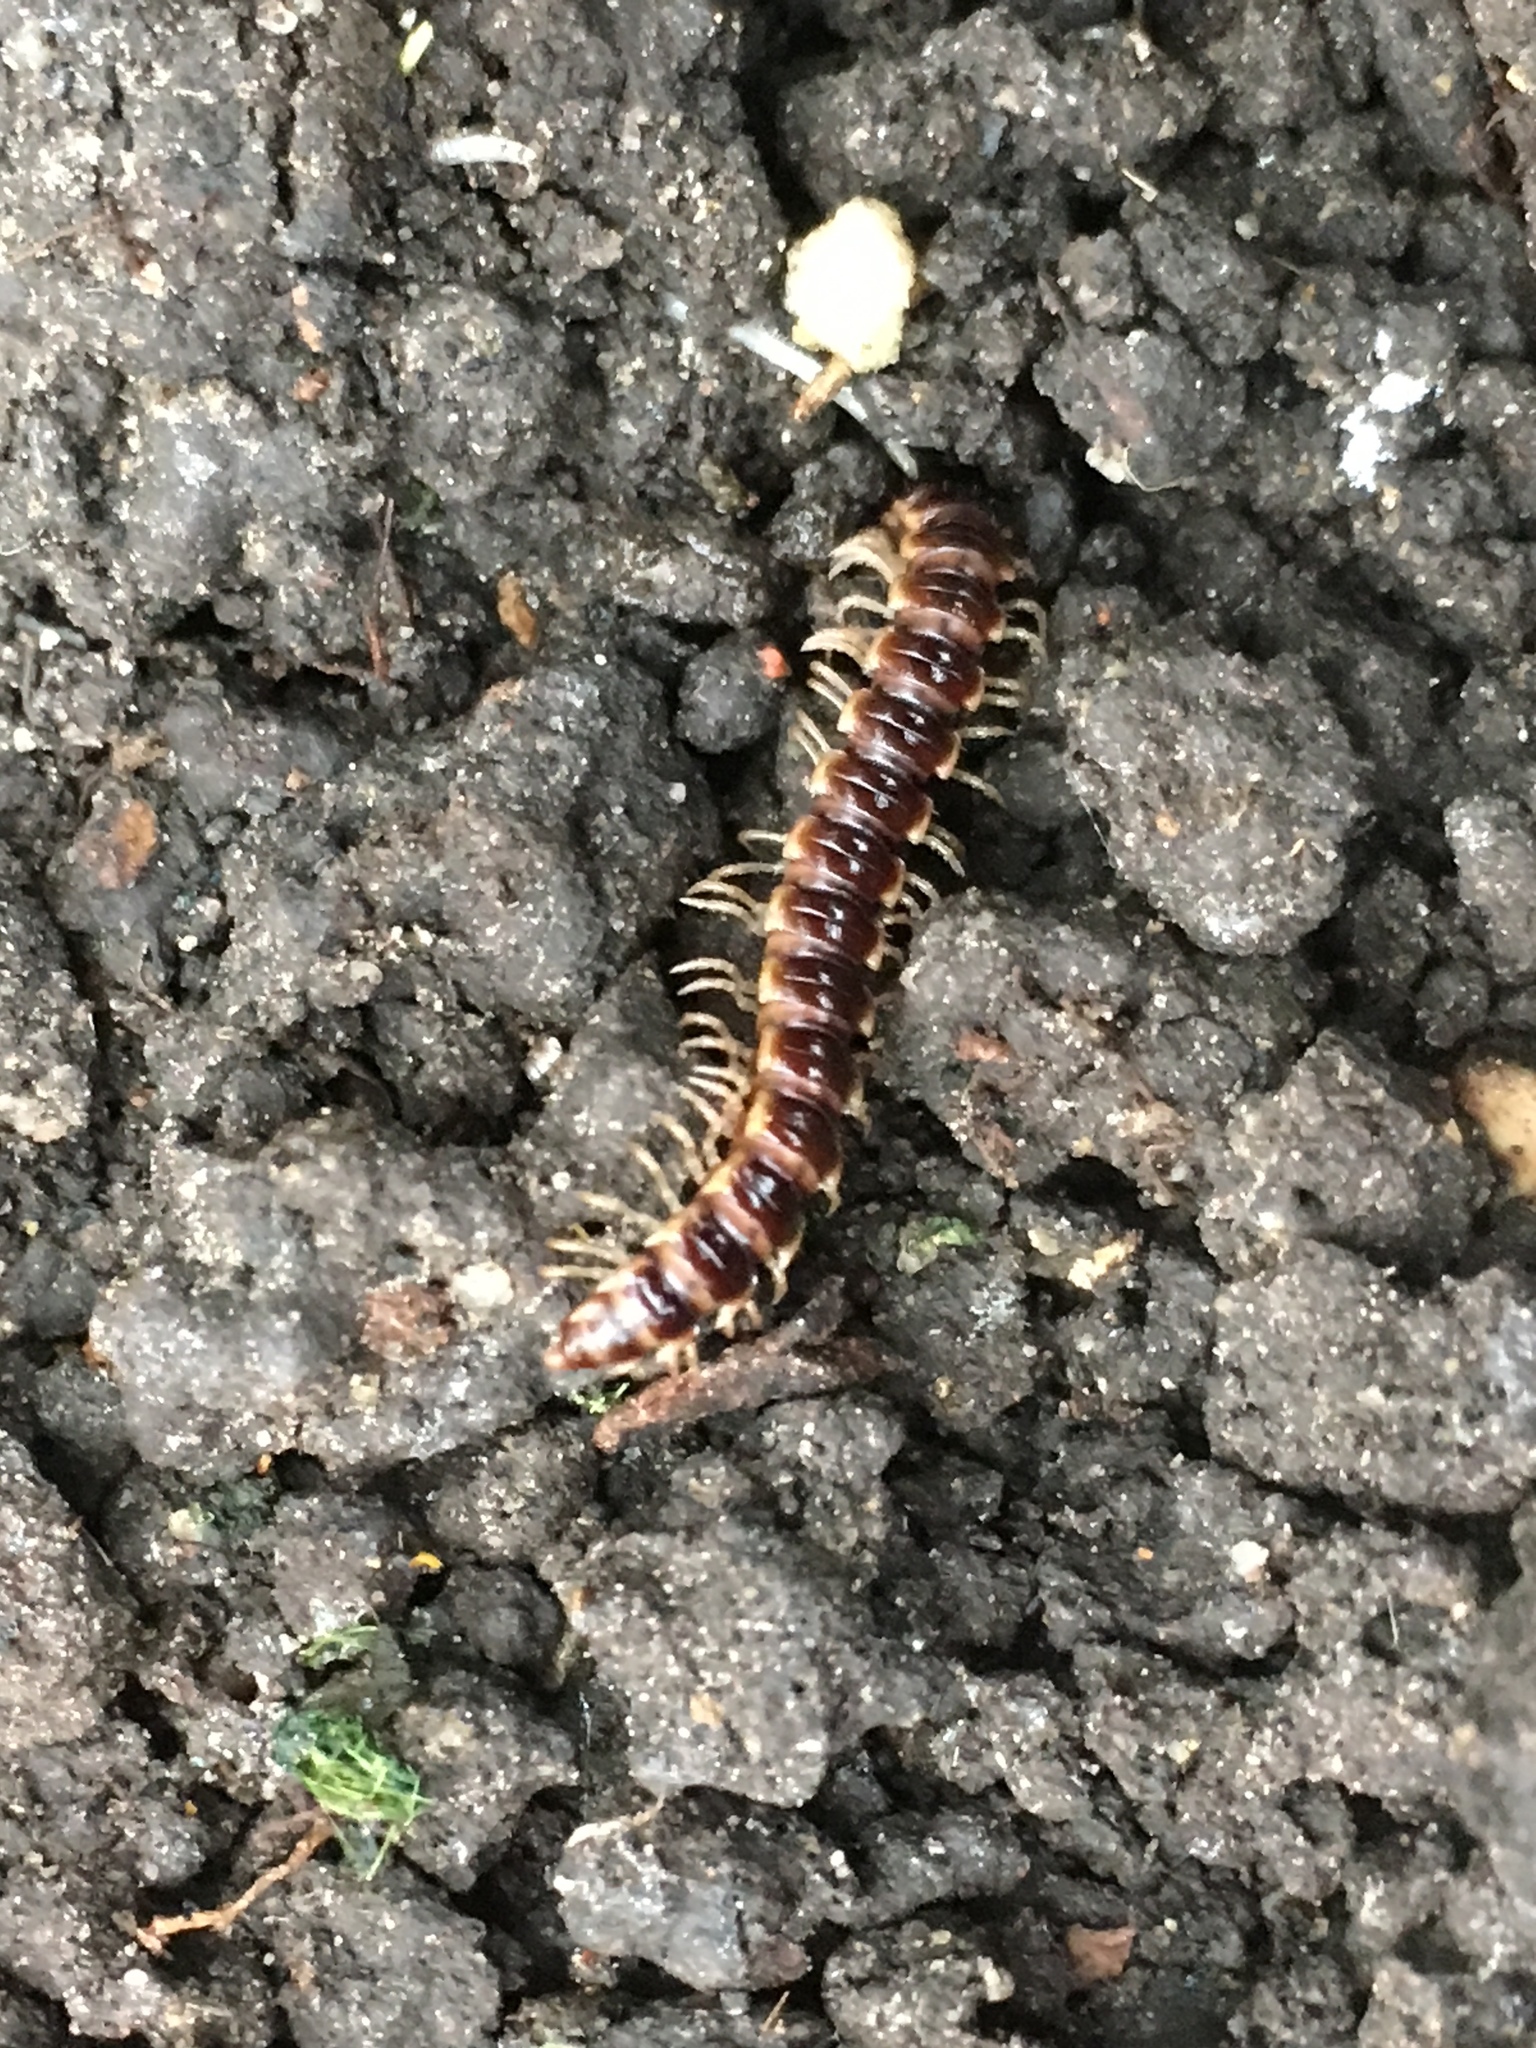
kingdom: Animalia
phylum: Arthropoda
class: Diplopoda
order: Polydesmida
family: Paradoxosomatidae
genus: Oxidus
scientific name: Oxidus gracilis
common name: Greenhouse millipede
